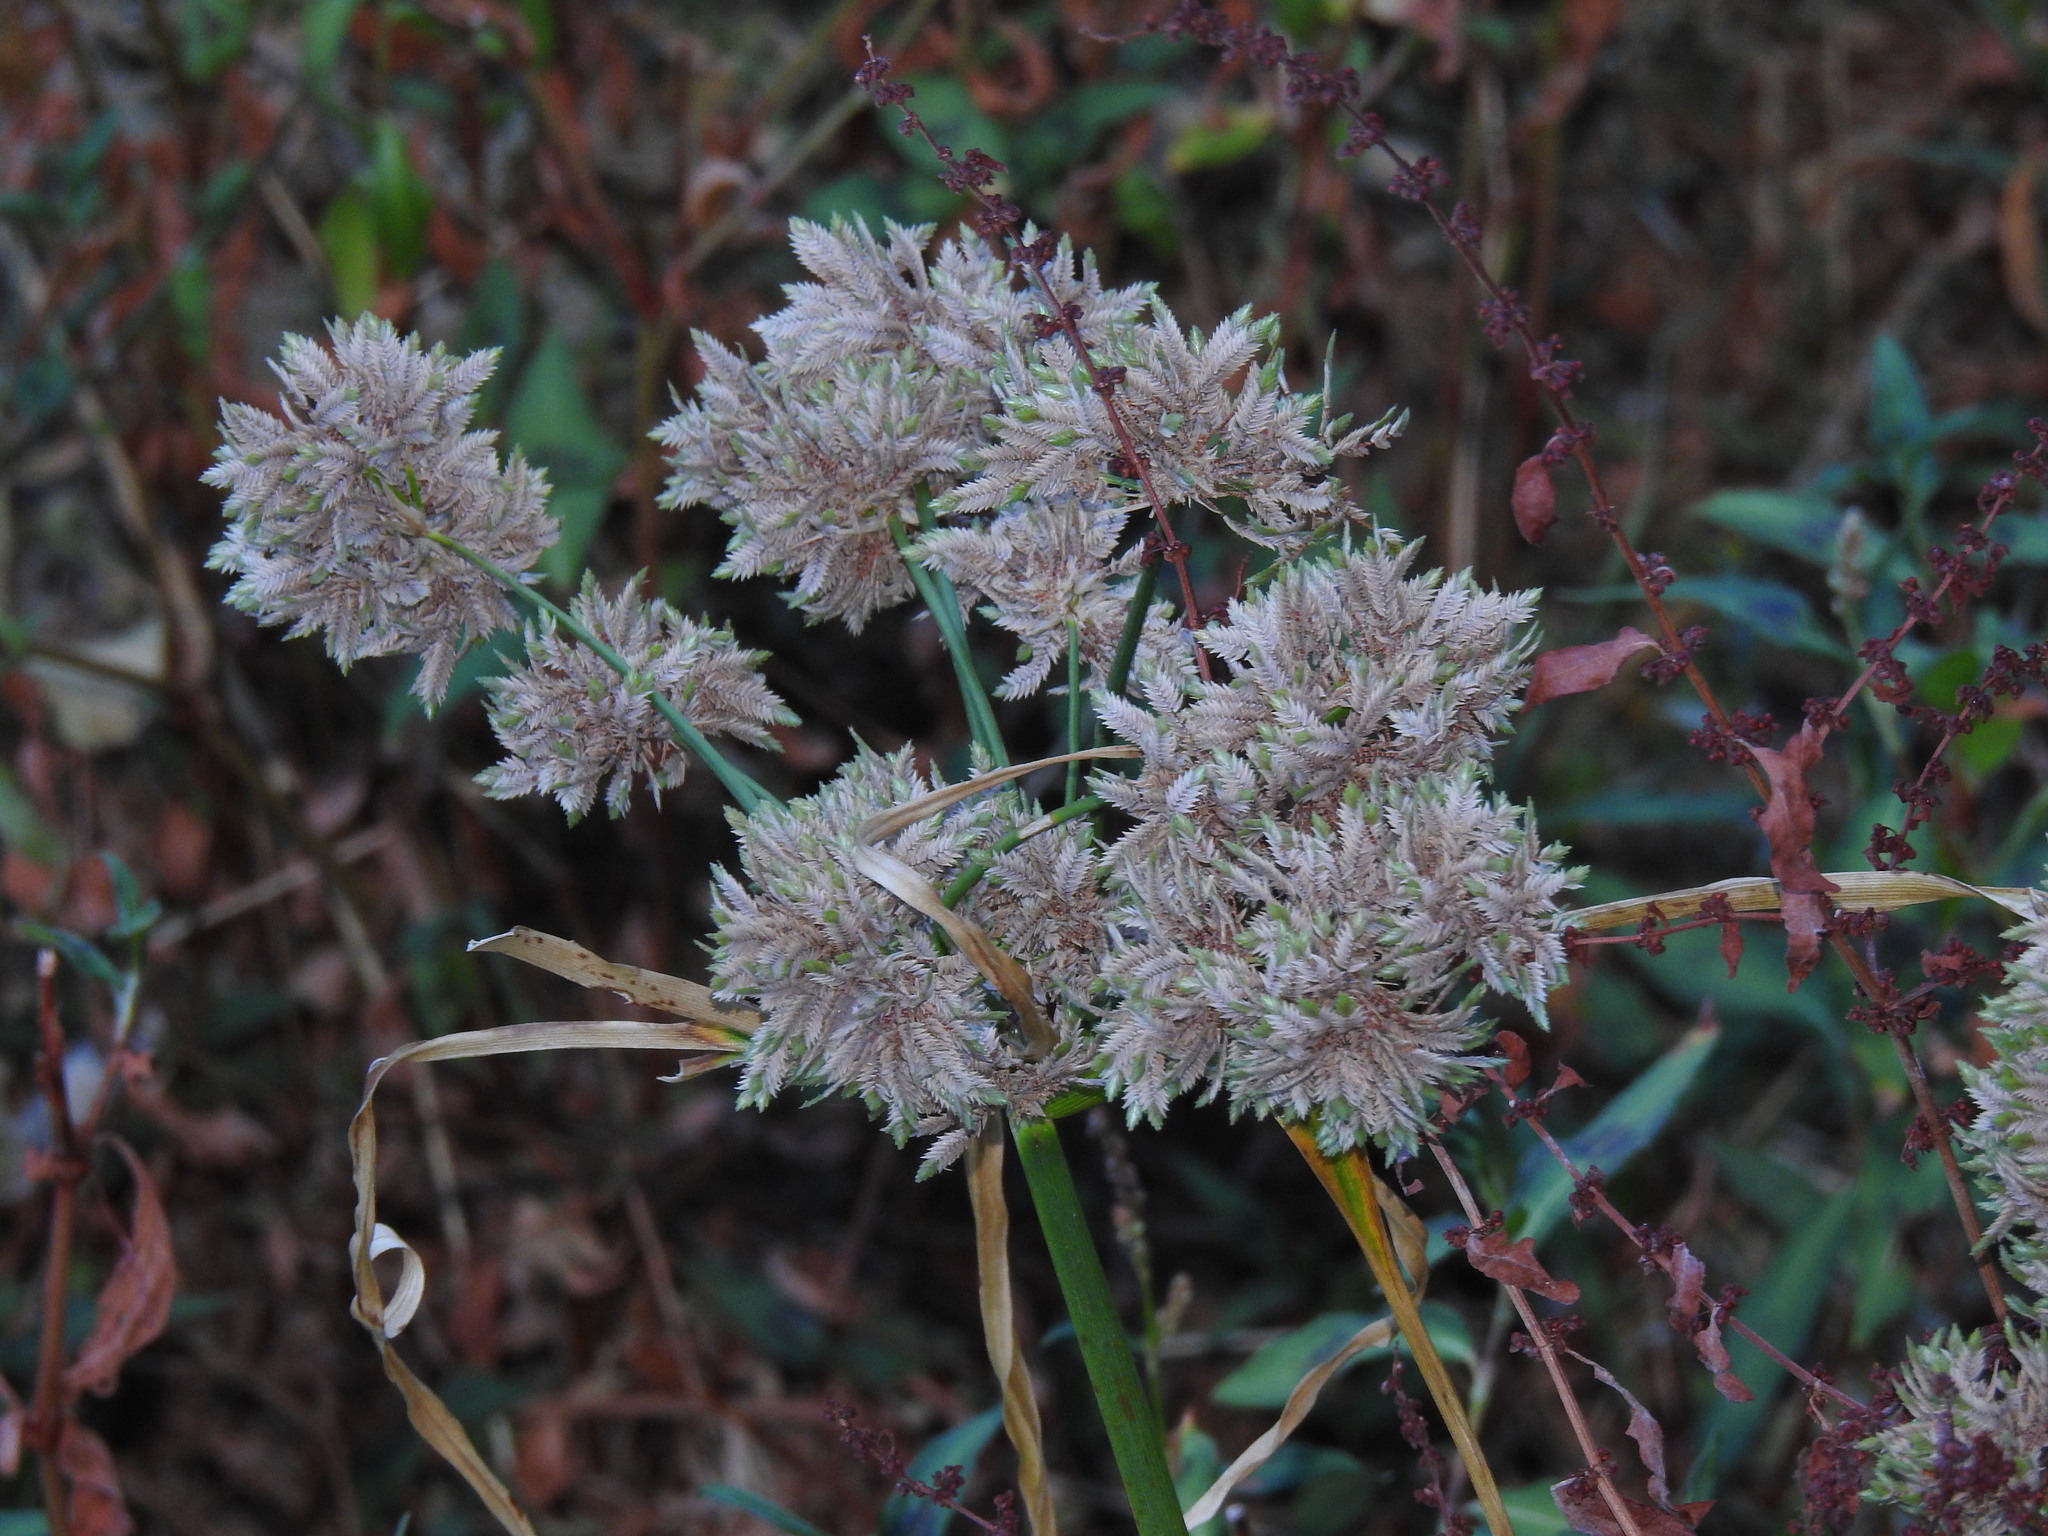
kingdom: Plantae
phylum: Tracheophyta
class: Liliopsida
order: Poales
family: Cyperaceae
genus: Cyperus
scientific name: Cyperus eragrostis
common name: Tall flatsedge
